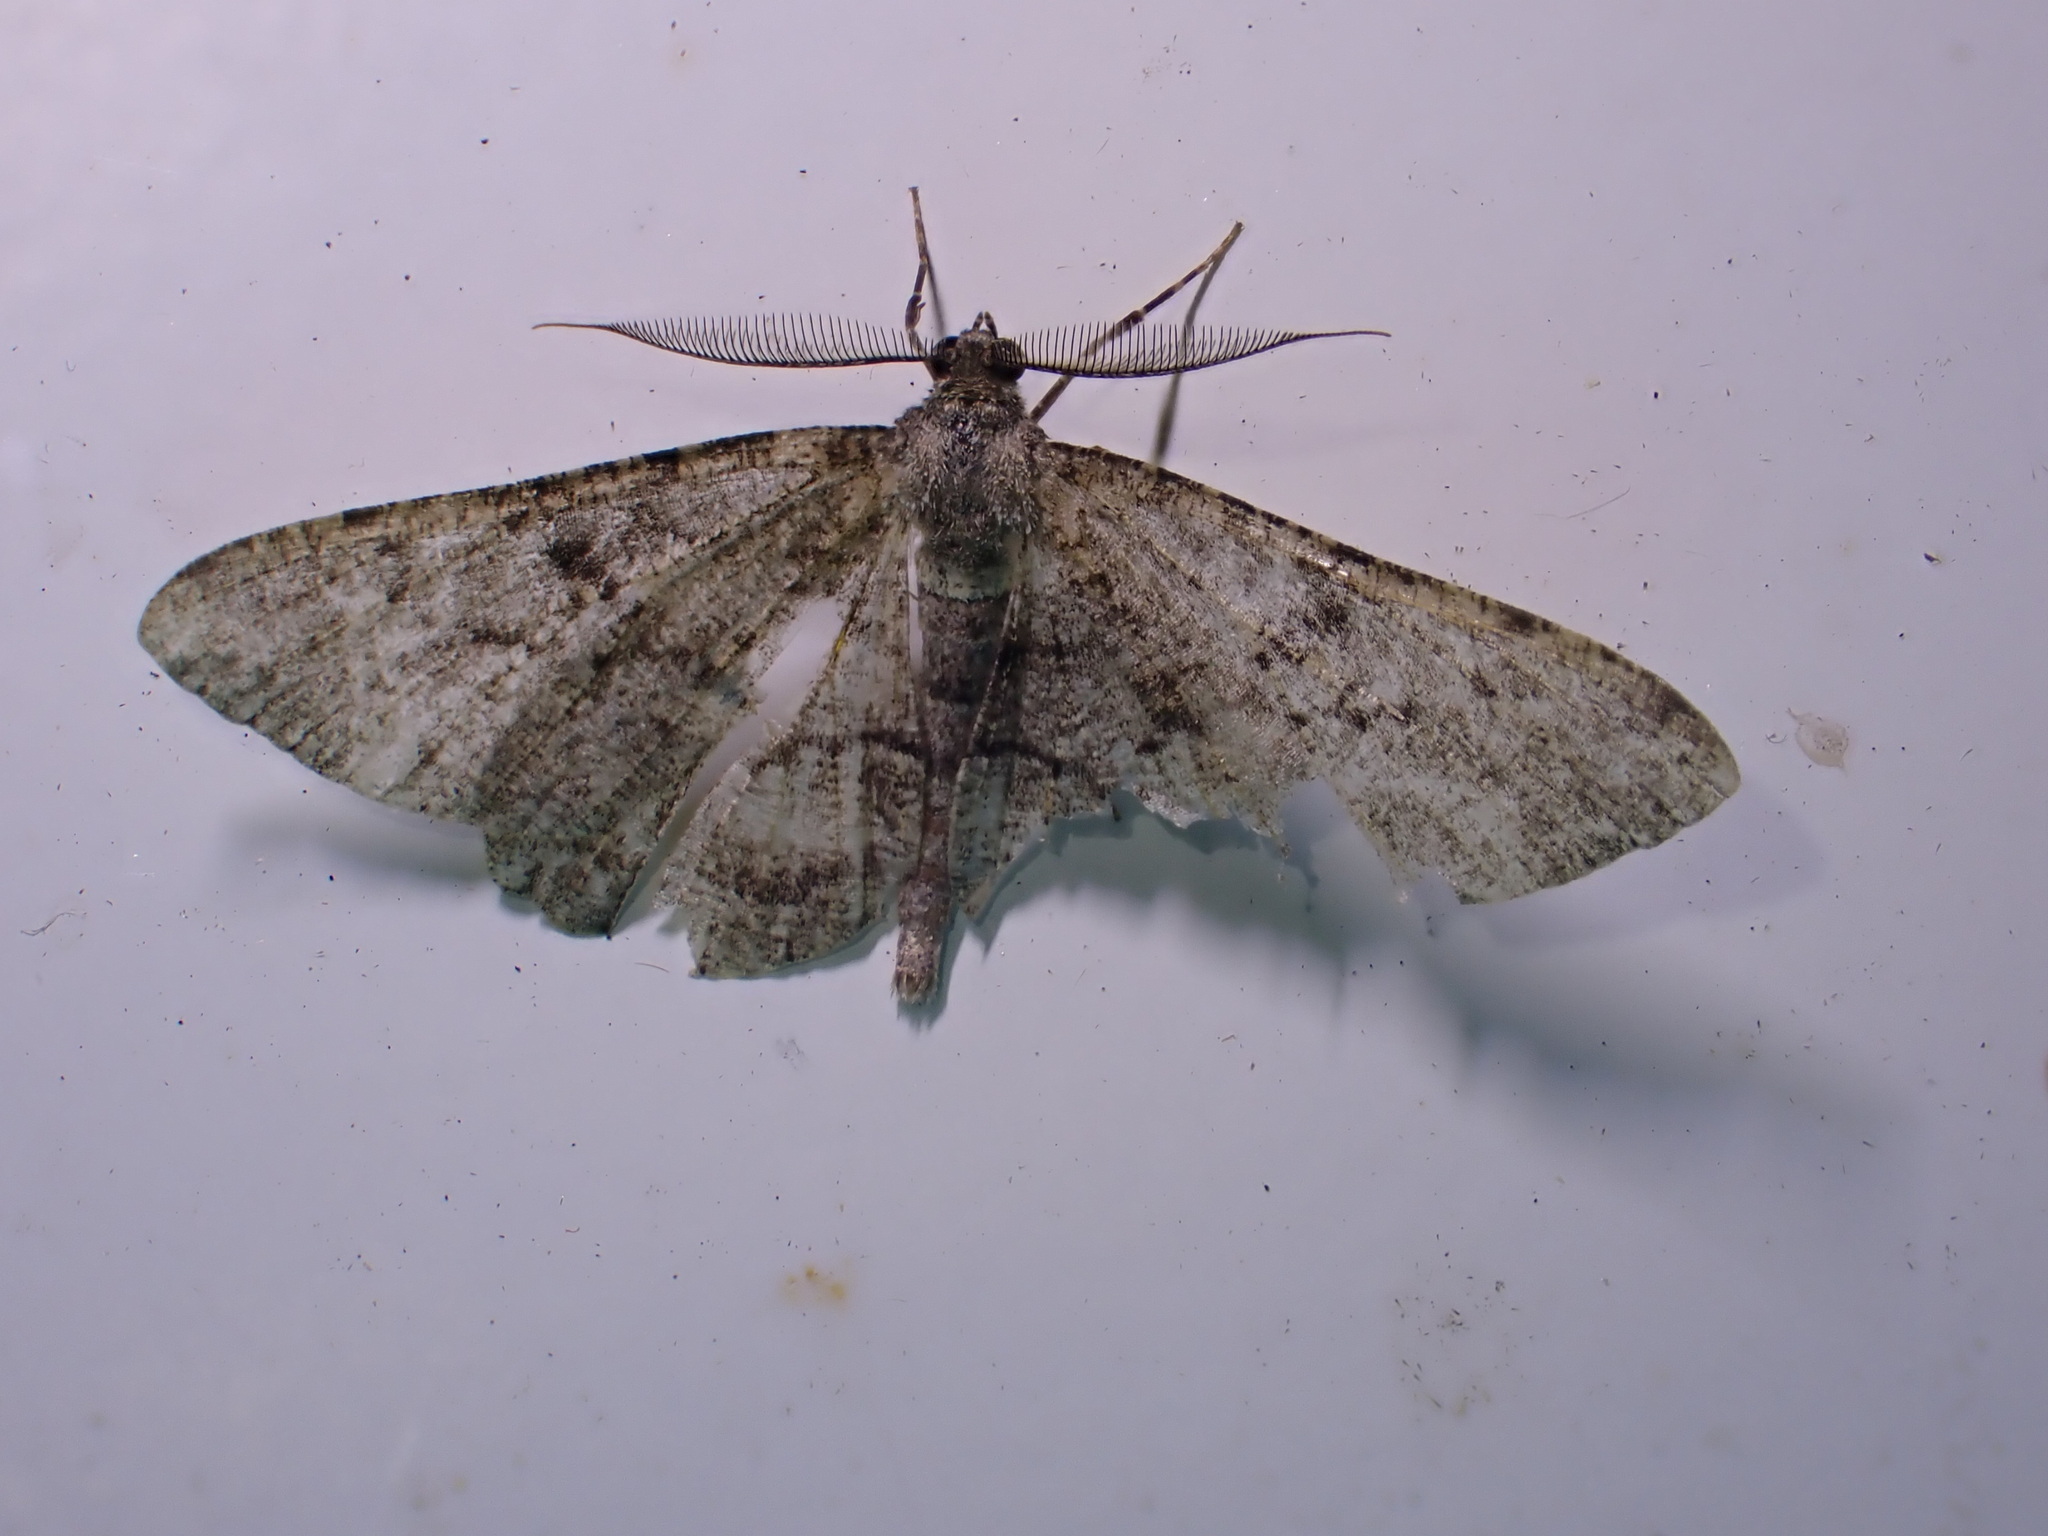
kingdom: Animalia
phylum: Arthropoda
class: Insecta
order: Lepidoptera
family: Geometridae
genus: Peribatodes
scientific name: Peribatodes rhomboidaria
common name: Willow beauty
